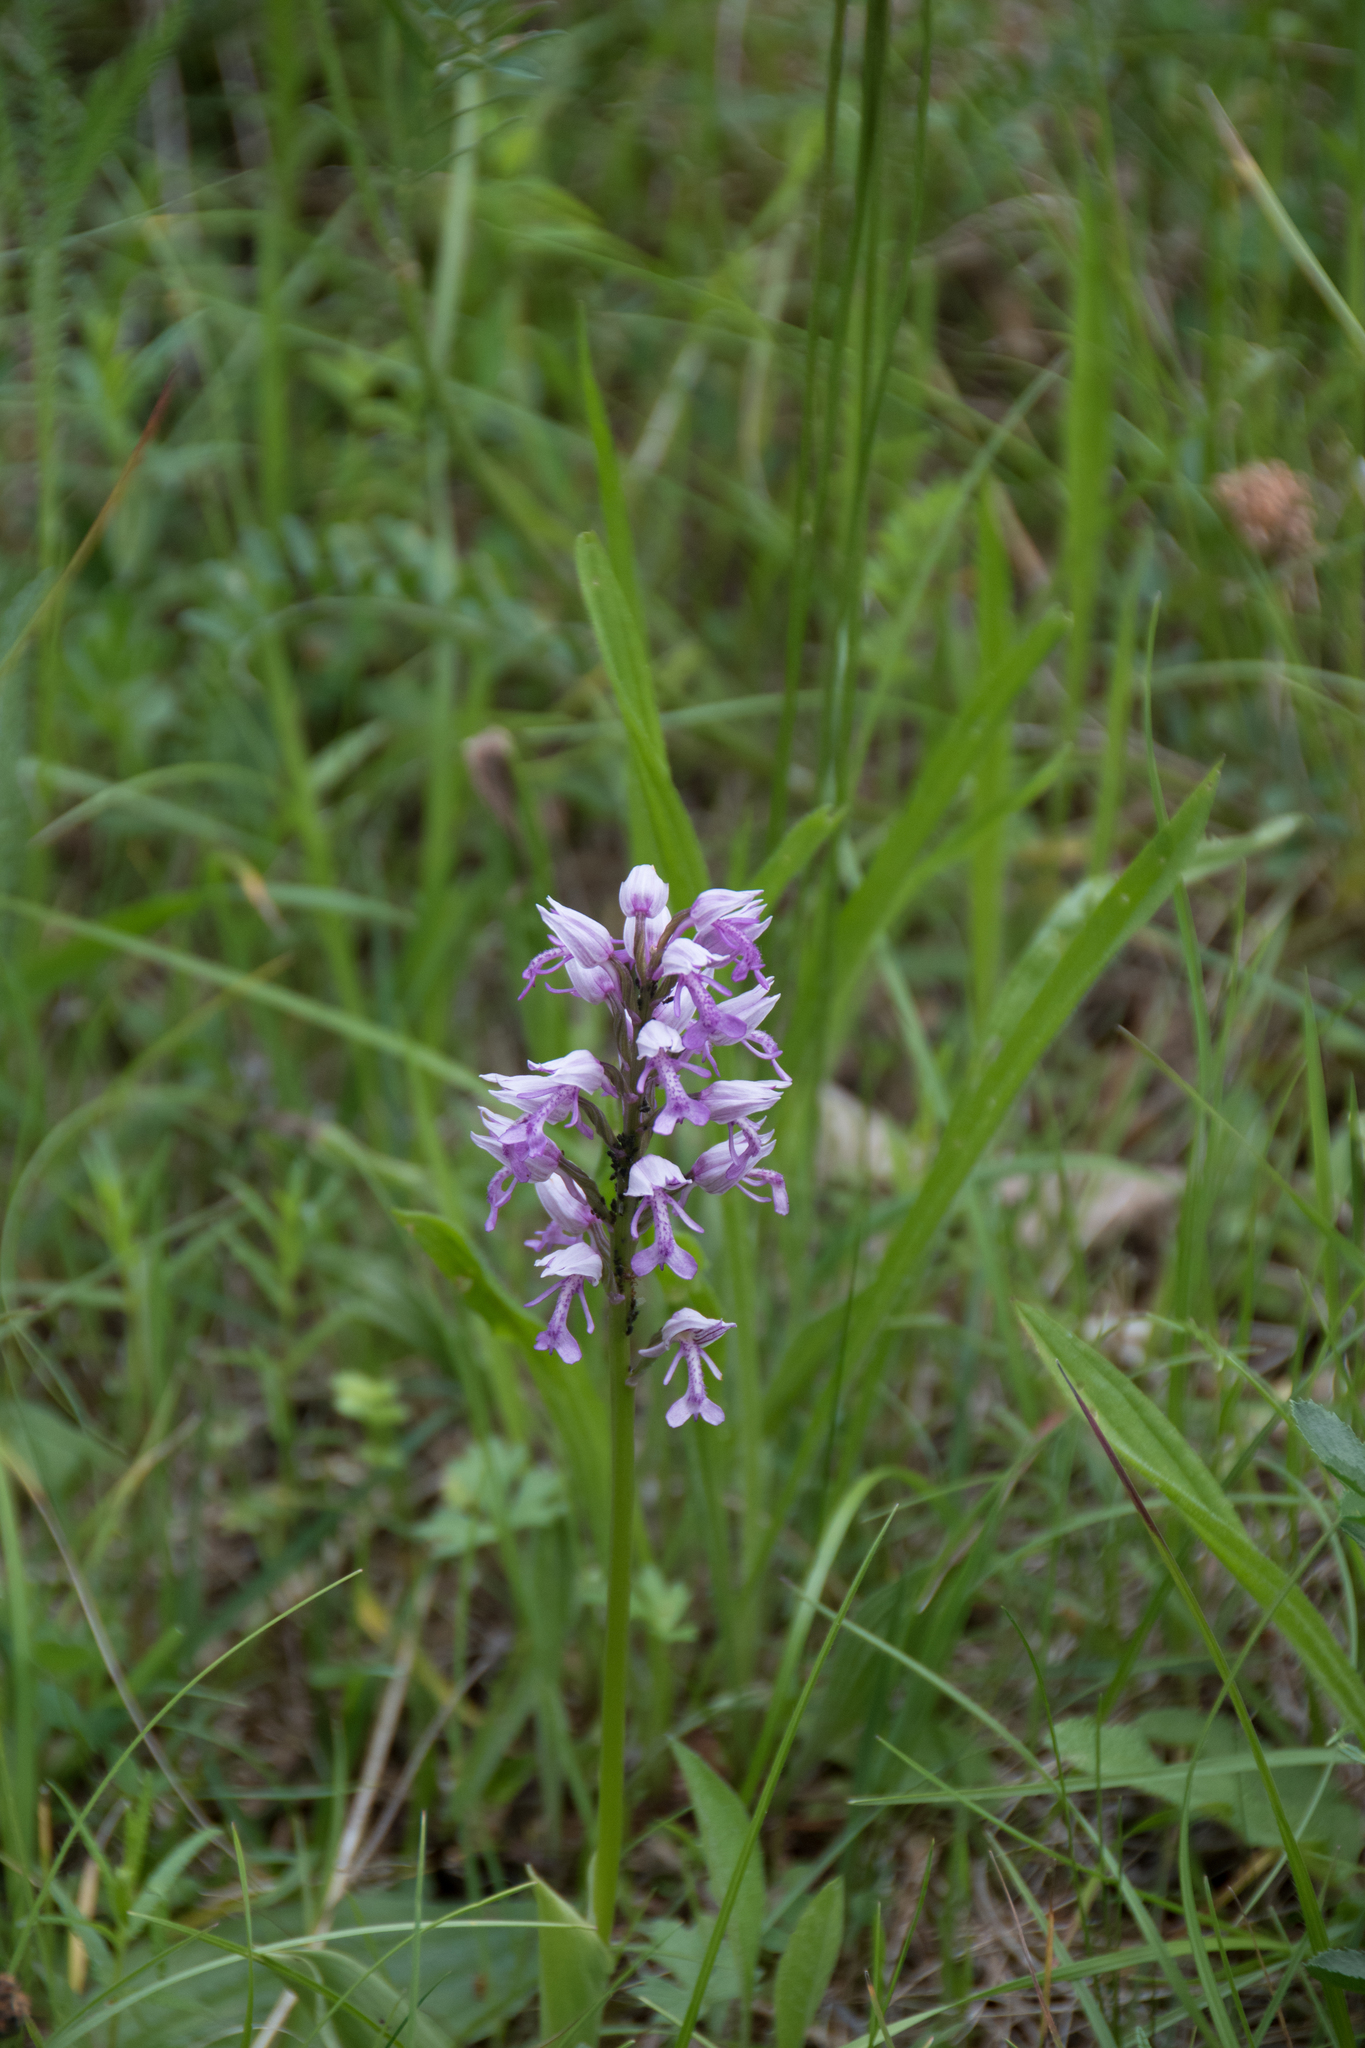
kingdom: Plantae
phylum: Tracheophyta
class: Liliopsida
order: Asparagales
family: Orchidaceae
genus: Orchis
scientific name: Orchis militaris
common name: Military orchid
